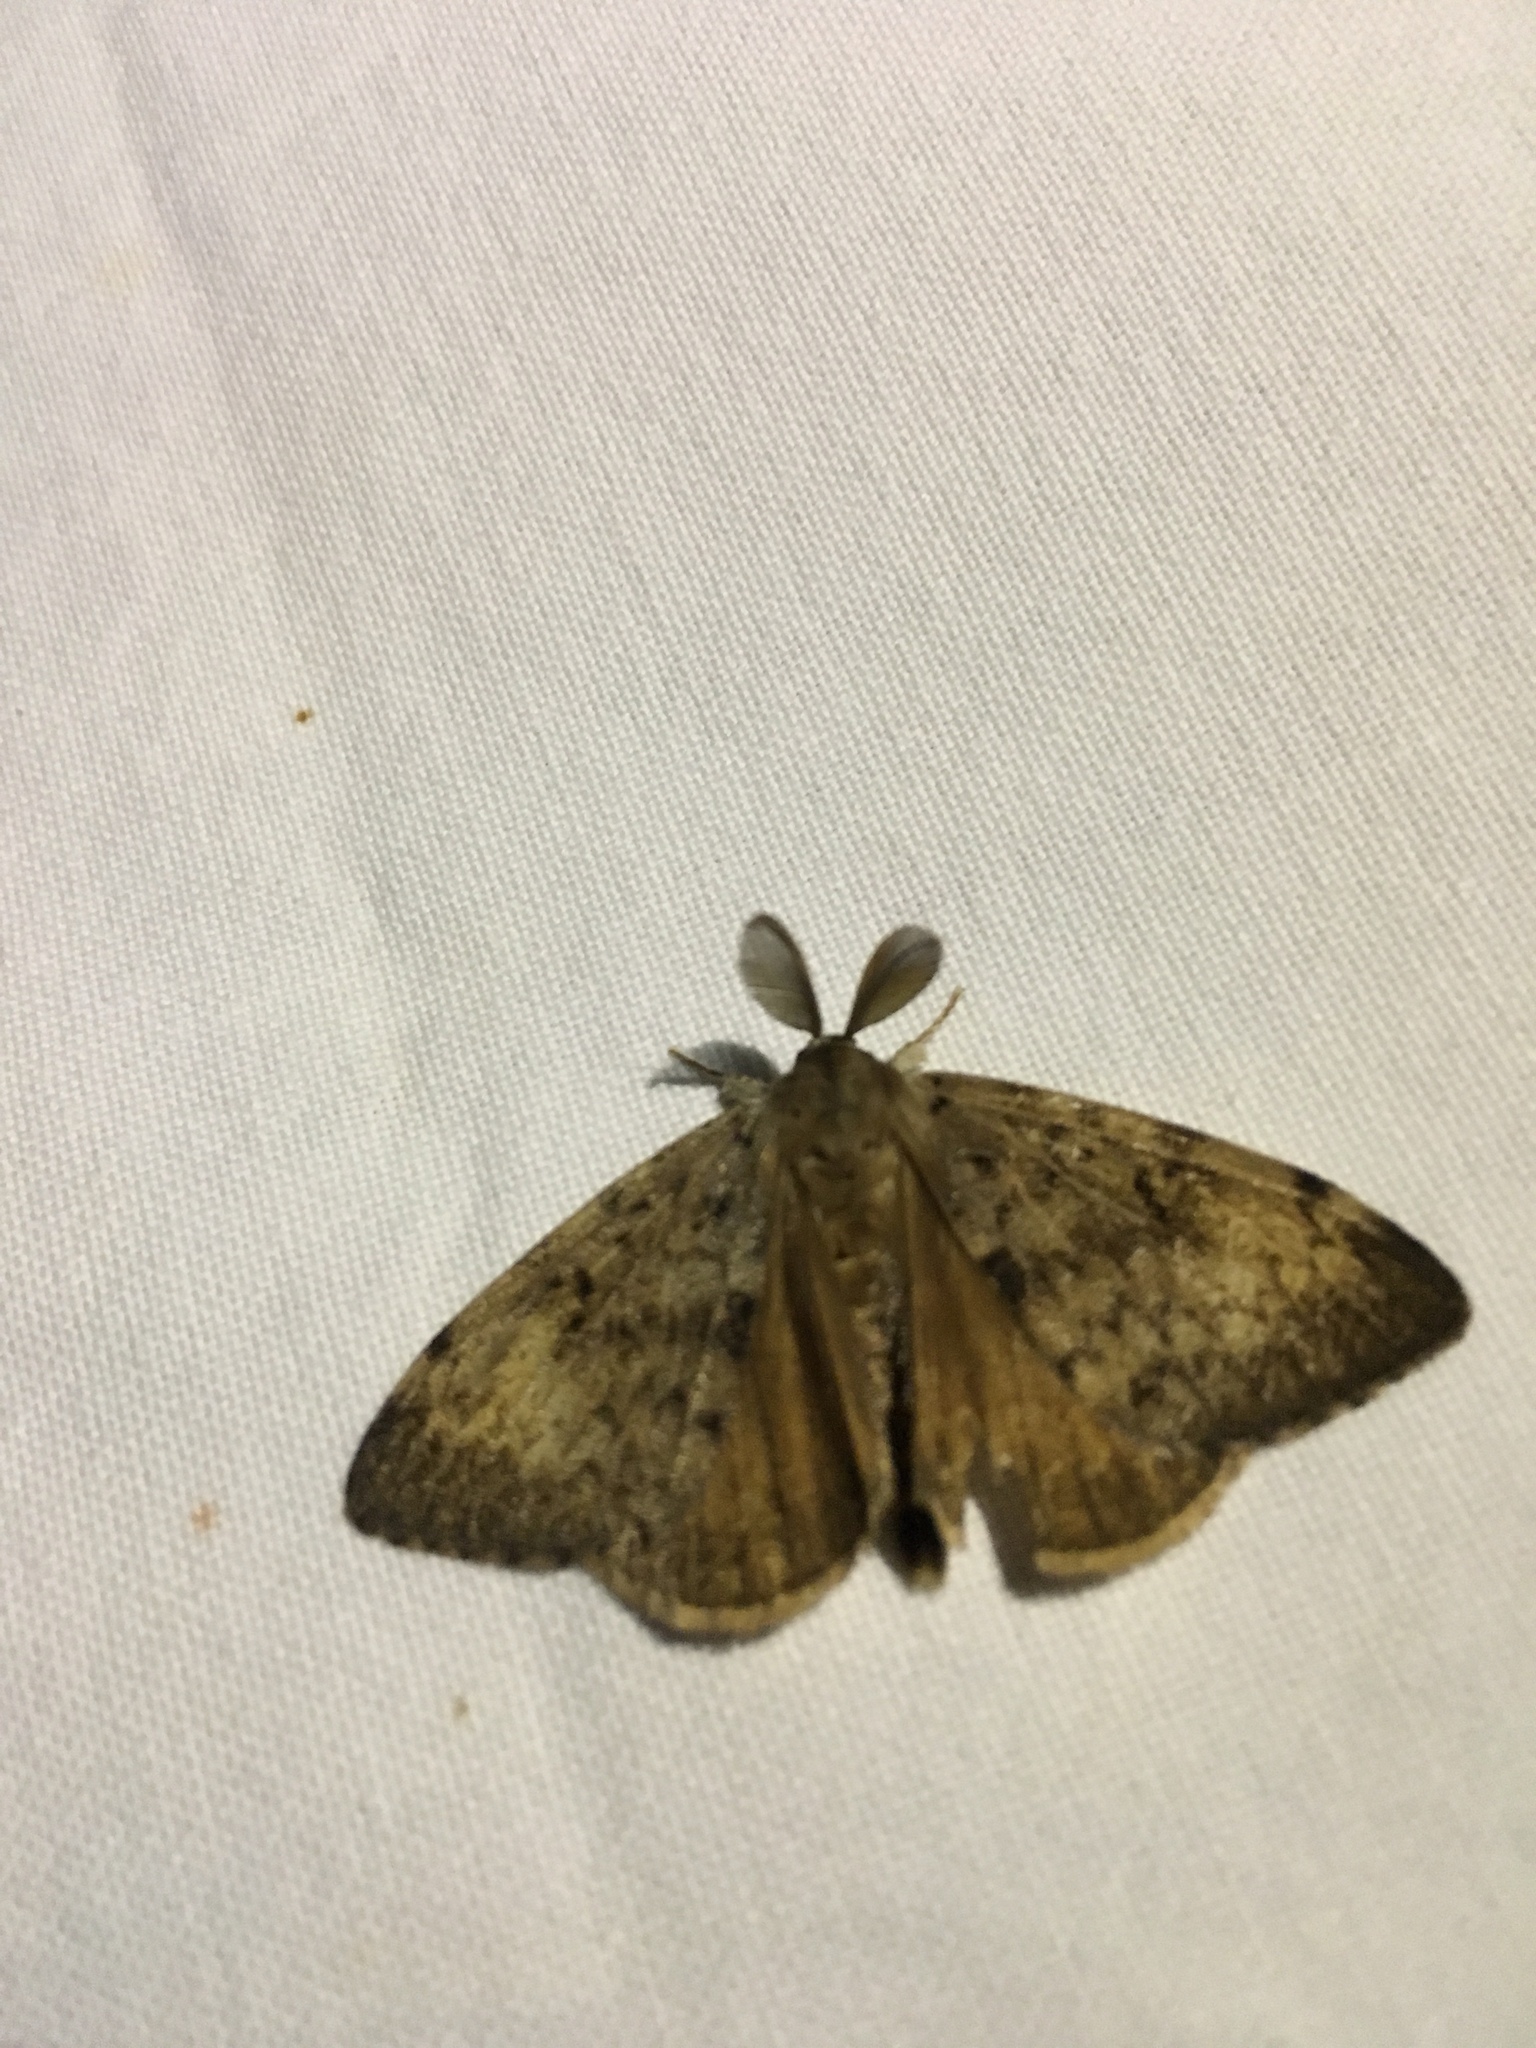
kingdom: Animalia
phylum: Arthropoda
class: Insecta
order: Lepidoptera
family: Erebidae
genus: Lymantria
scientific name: Lymantria dispar
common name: Gypsy moth
